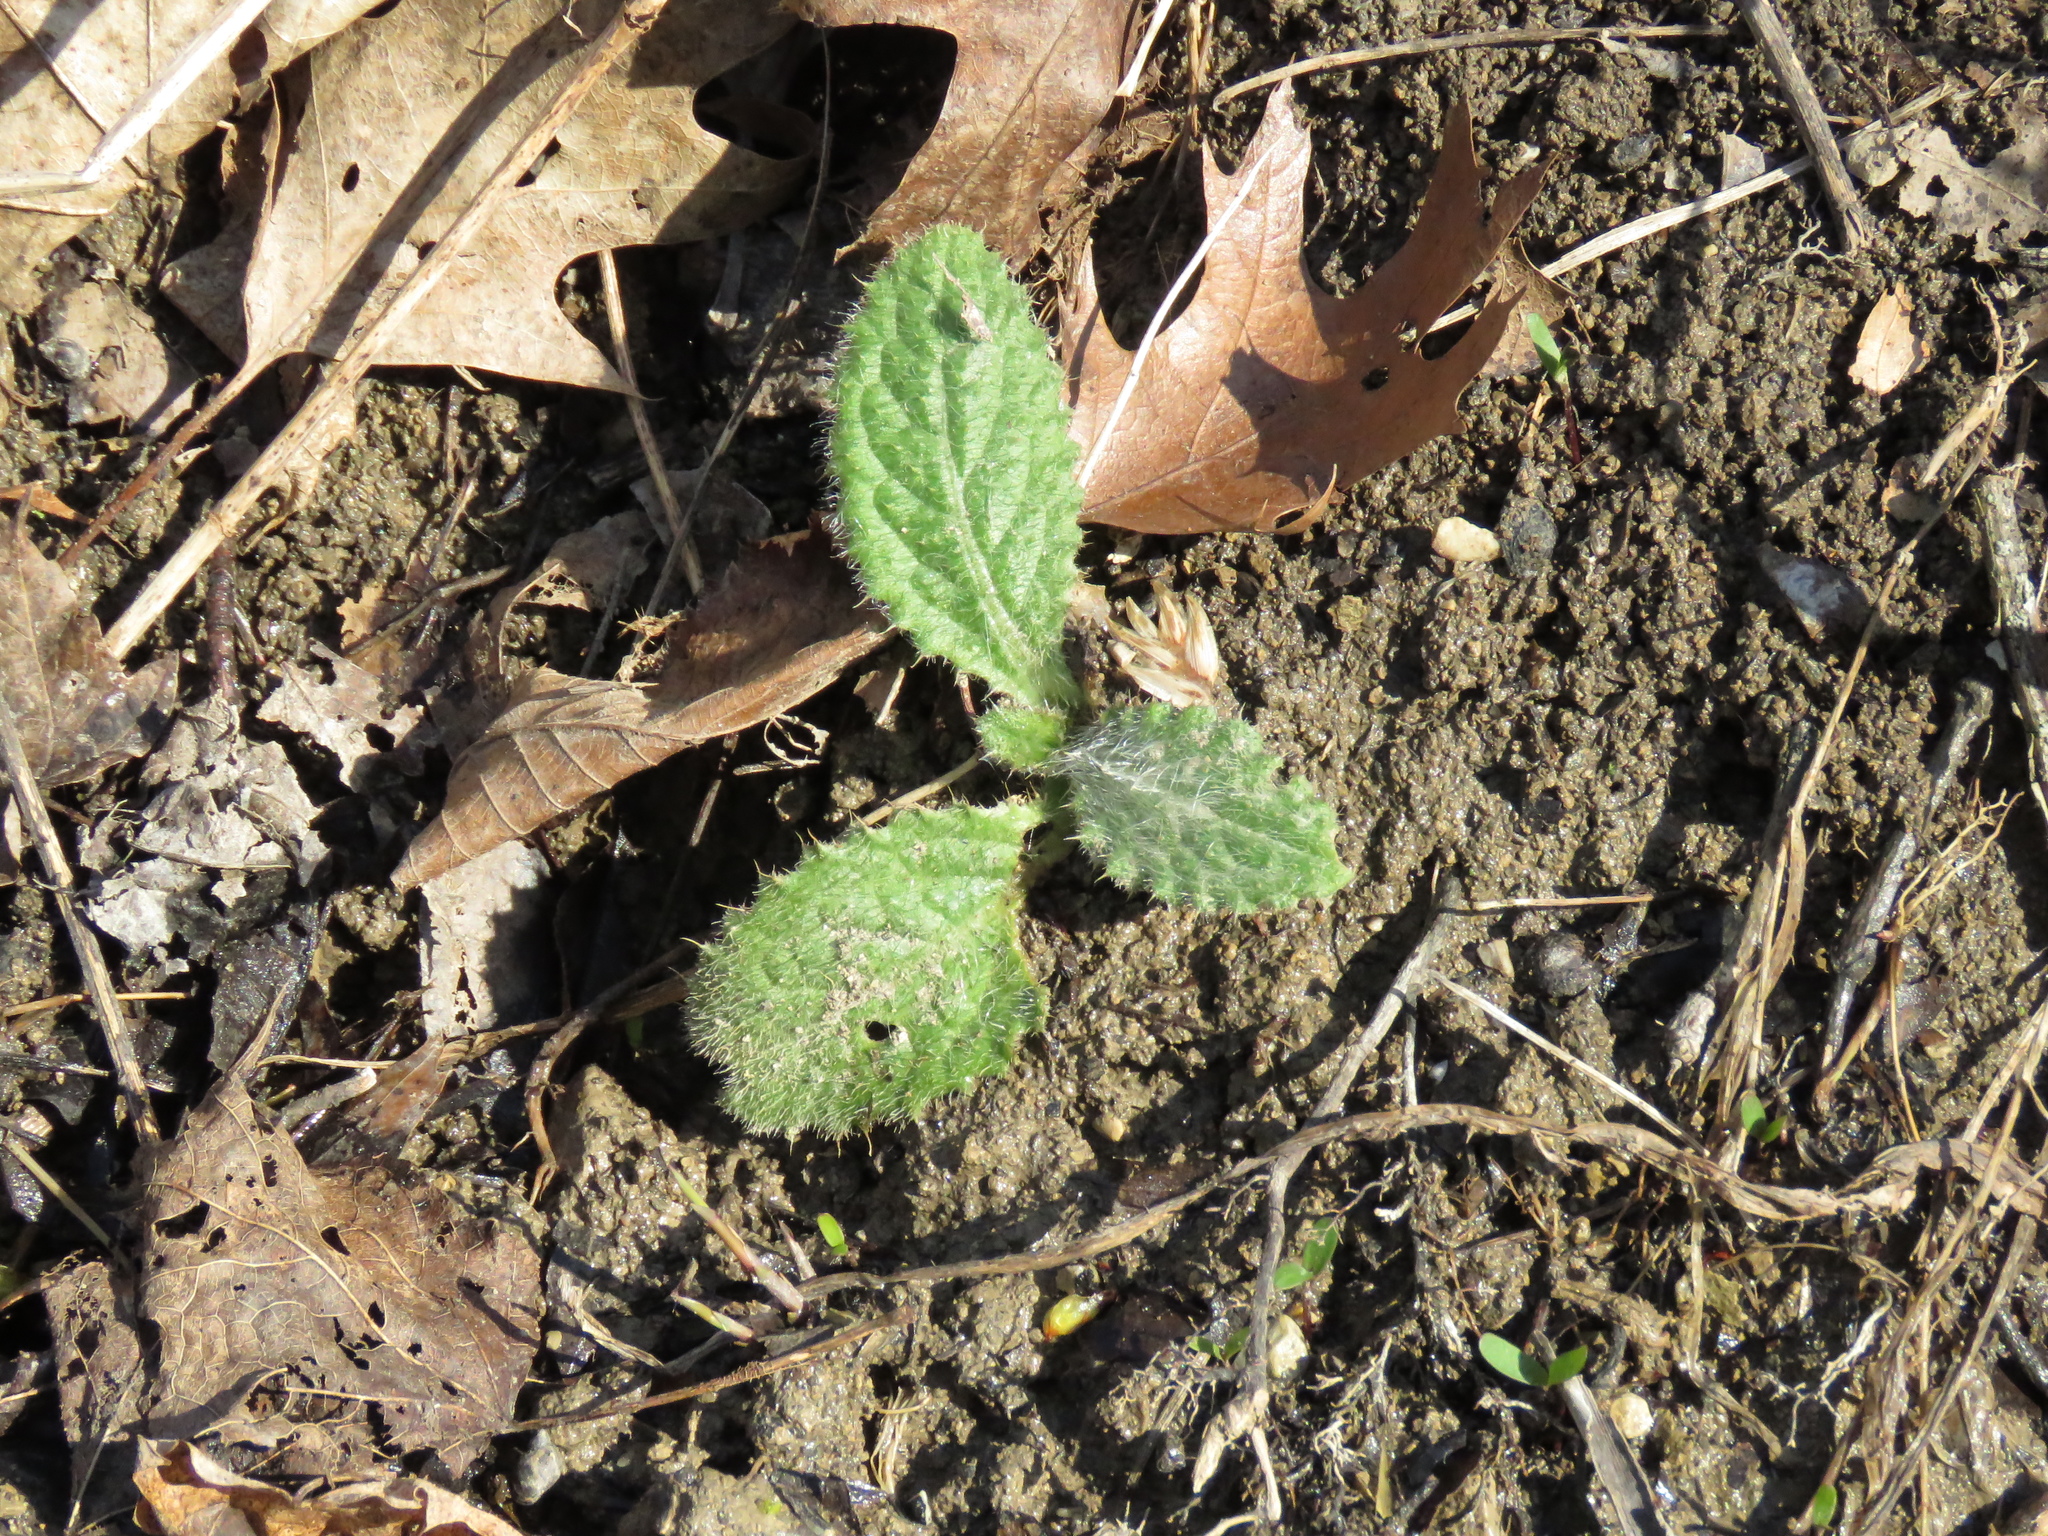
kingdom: Plantae
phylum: Tracheophyta
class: Magnoliopsida
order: Asterales
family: Asteraceae
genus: Cirsium
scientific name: Cirsium vulgare
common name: Bull thistle
